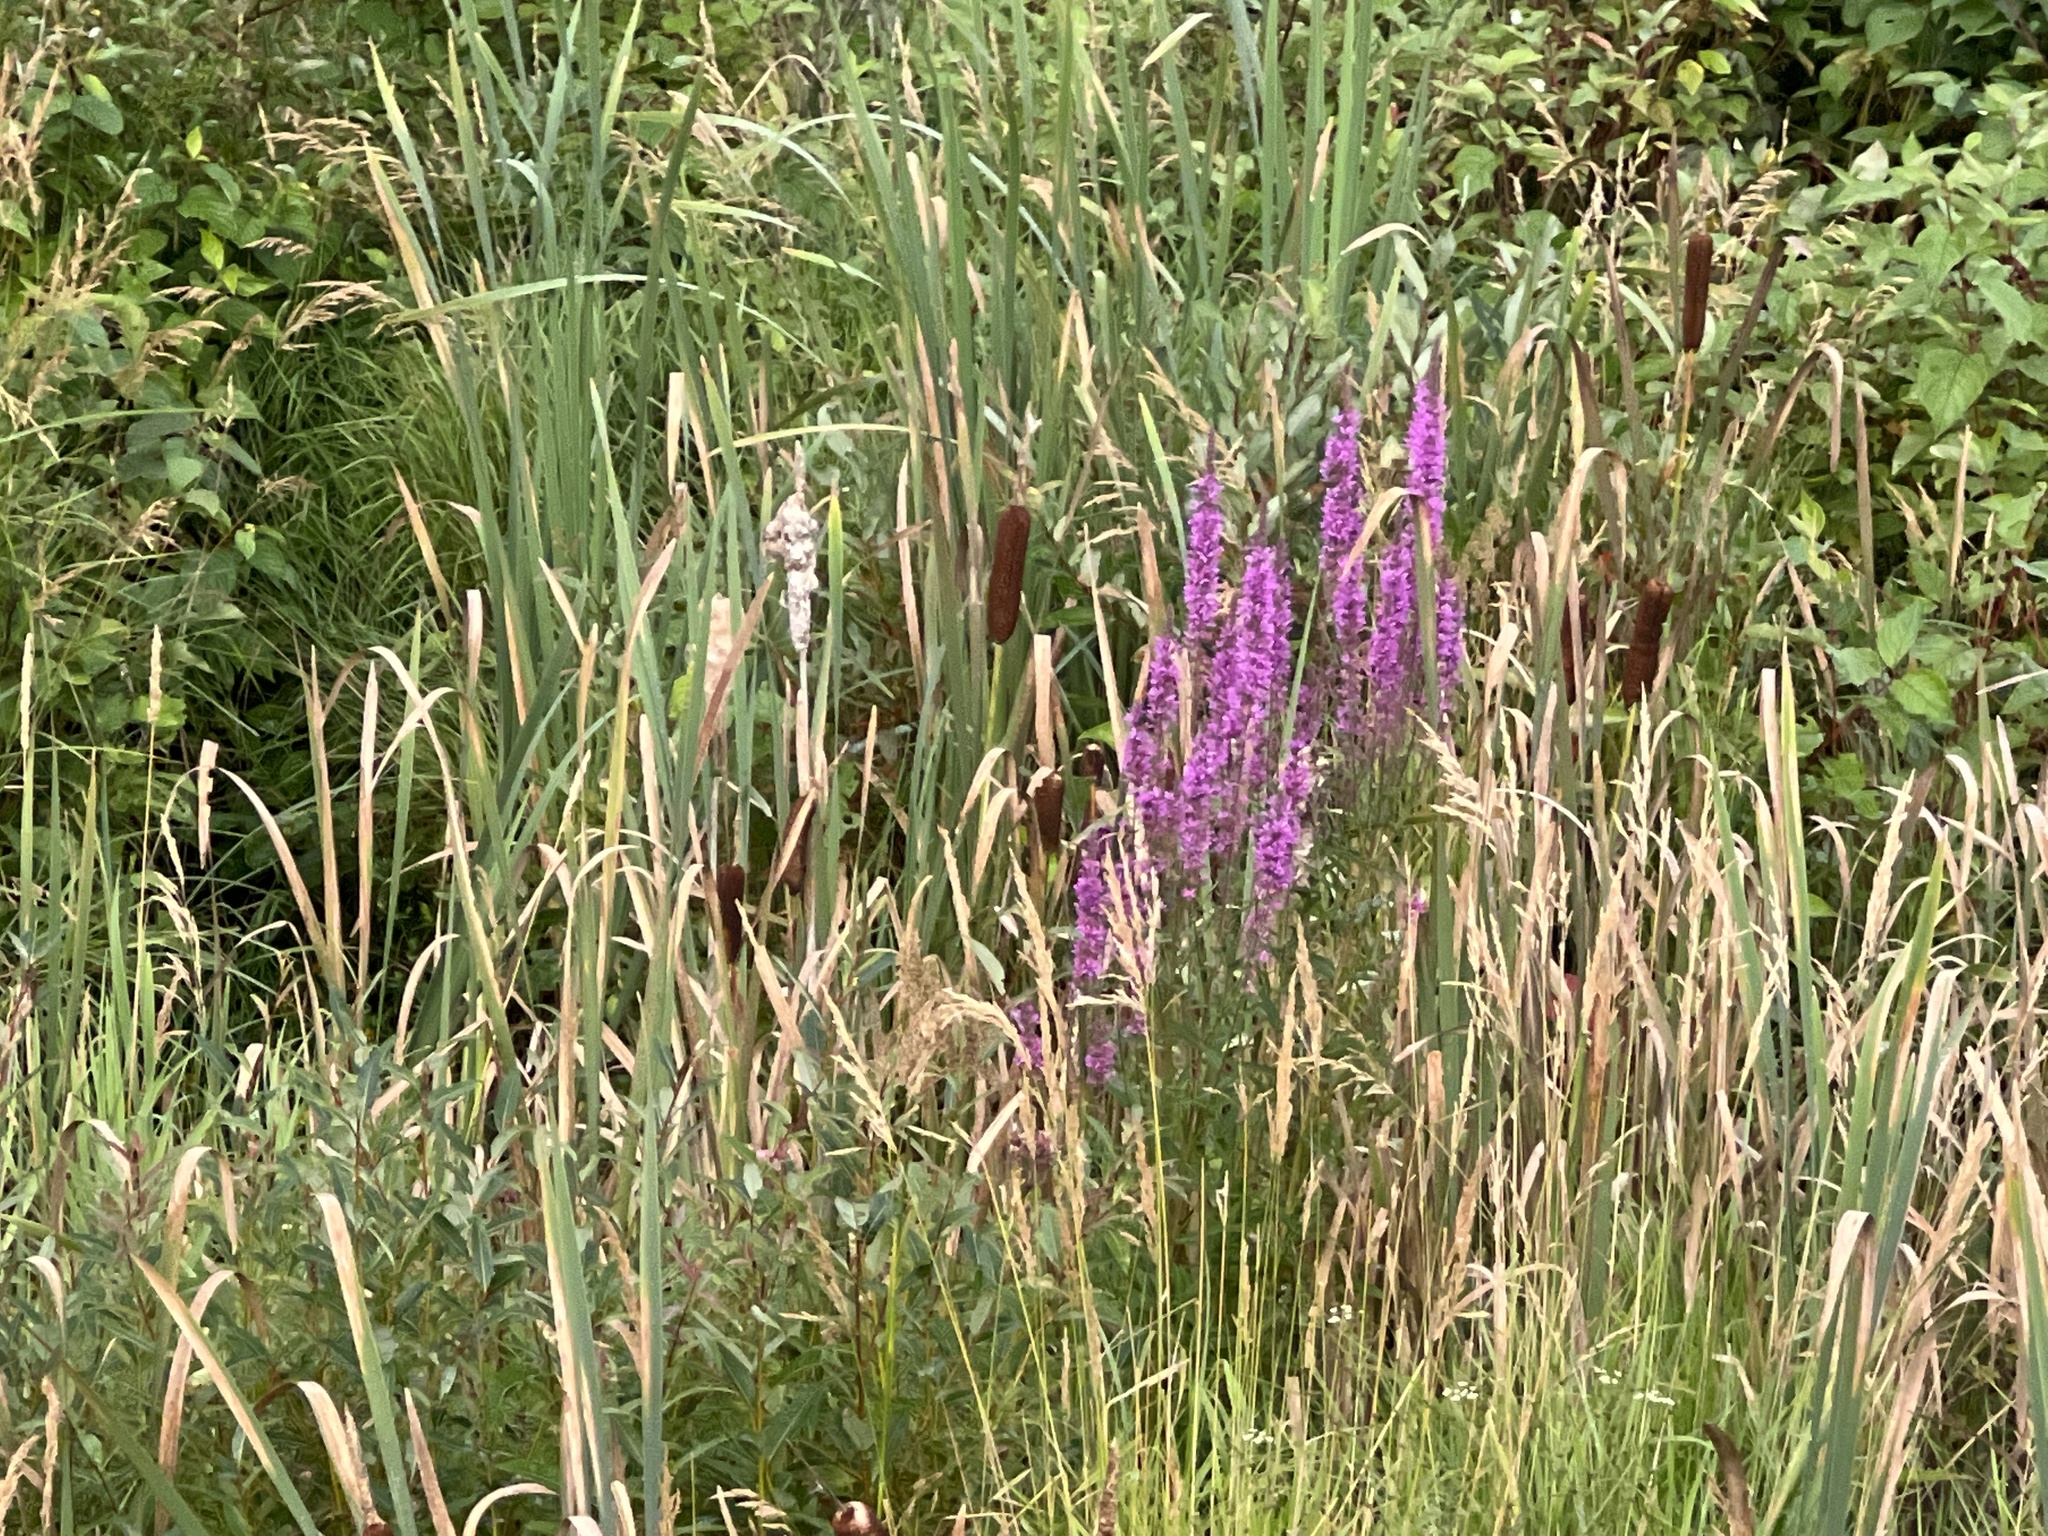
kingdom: Plantae
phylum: Tracheophyta
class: Magnoliopsida
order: Myrtales
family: Lythraceae
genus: Lythrum
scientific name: Lythrum salicaria
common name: Purple loosestrife
